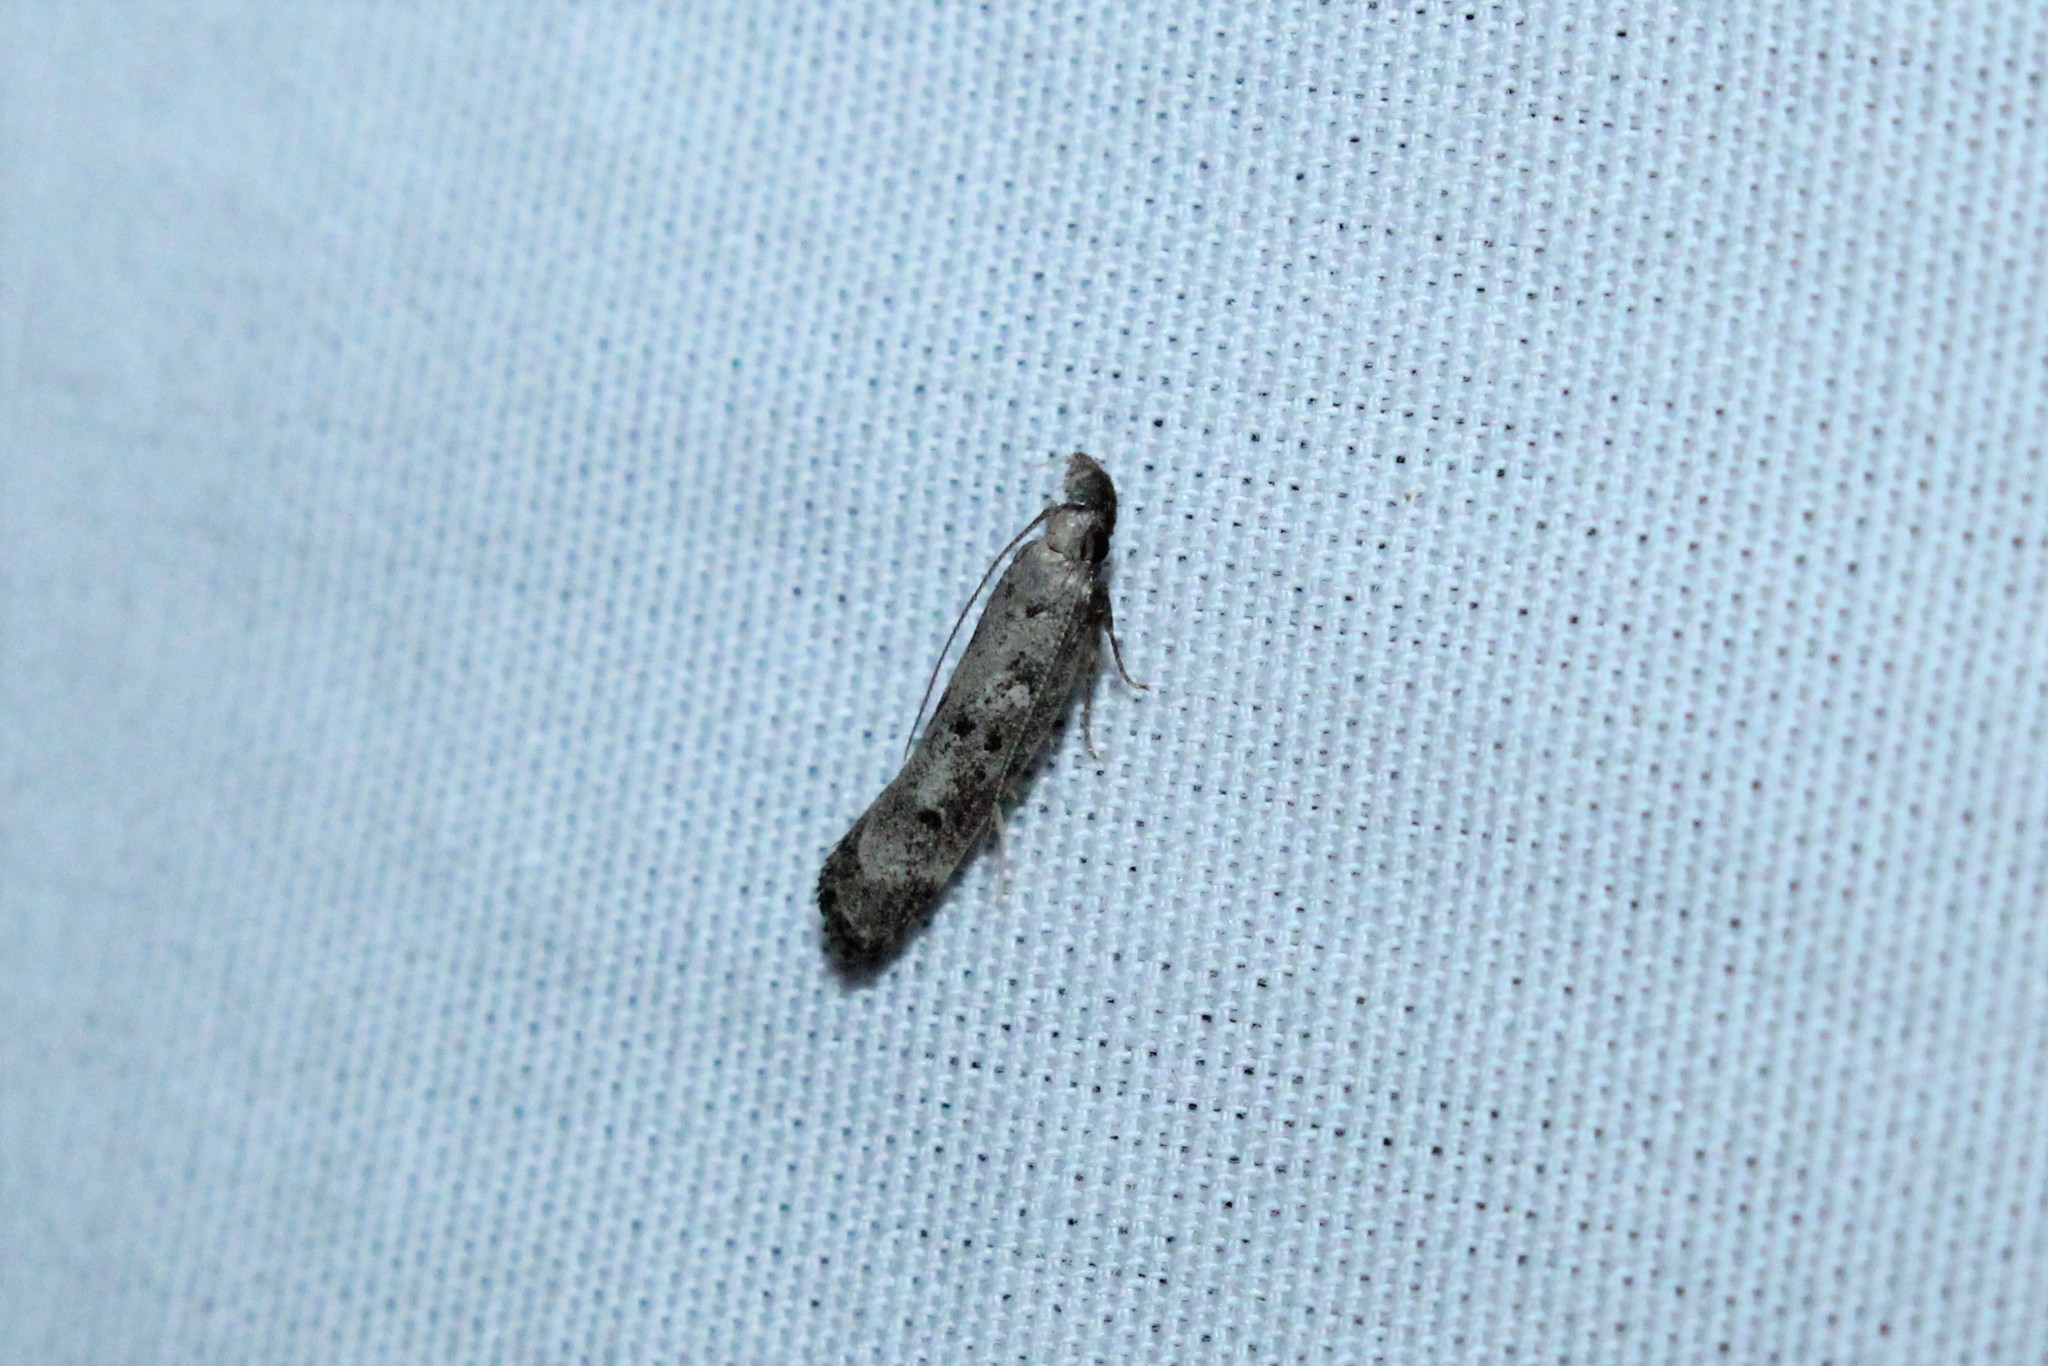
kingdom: Animalia
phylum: Arthropoda
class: Insecta
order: Lepidoptera
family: Gelechiidae
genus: Dichomeris
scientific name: Dichomeris inversella
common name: Inverse dichomeris moth
